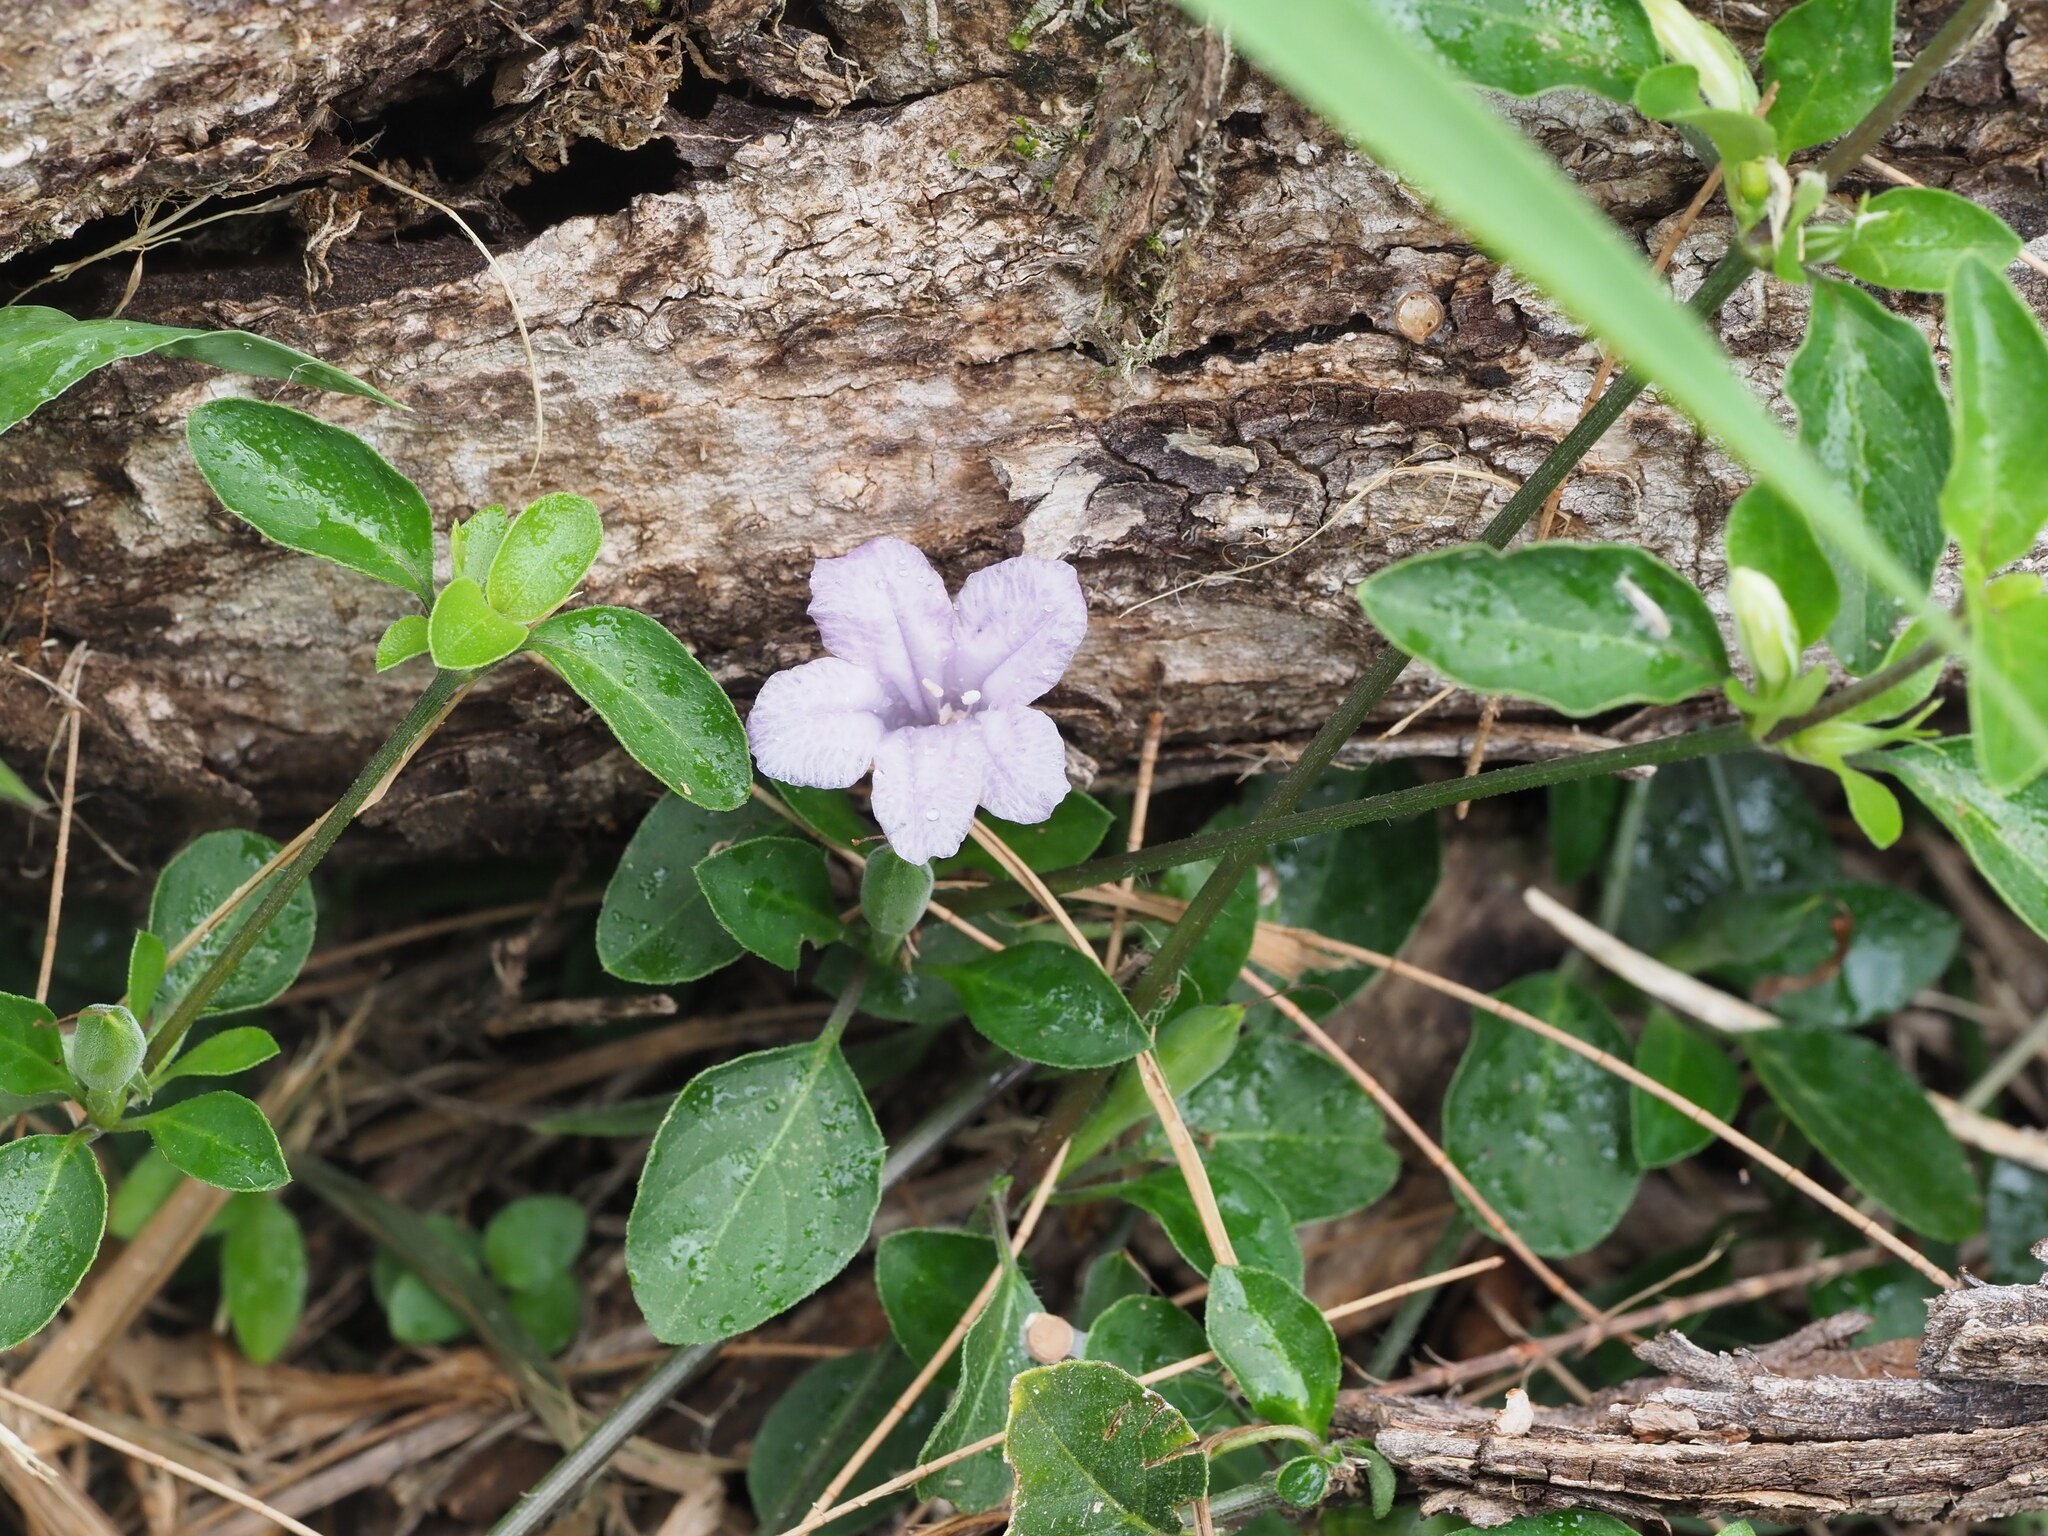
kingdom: Plantae
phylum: Tracheophyta
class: Magnoliopsida
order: Lamiales
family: Acanthaceae
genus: Ruellia
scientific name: Ruellia prostrata
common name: Prostrate wild petunia
